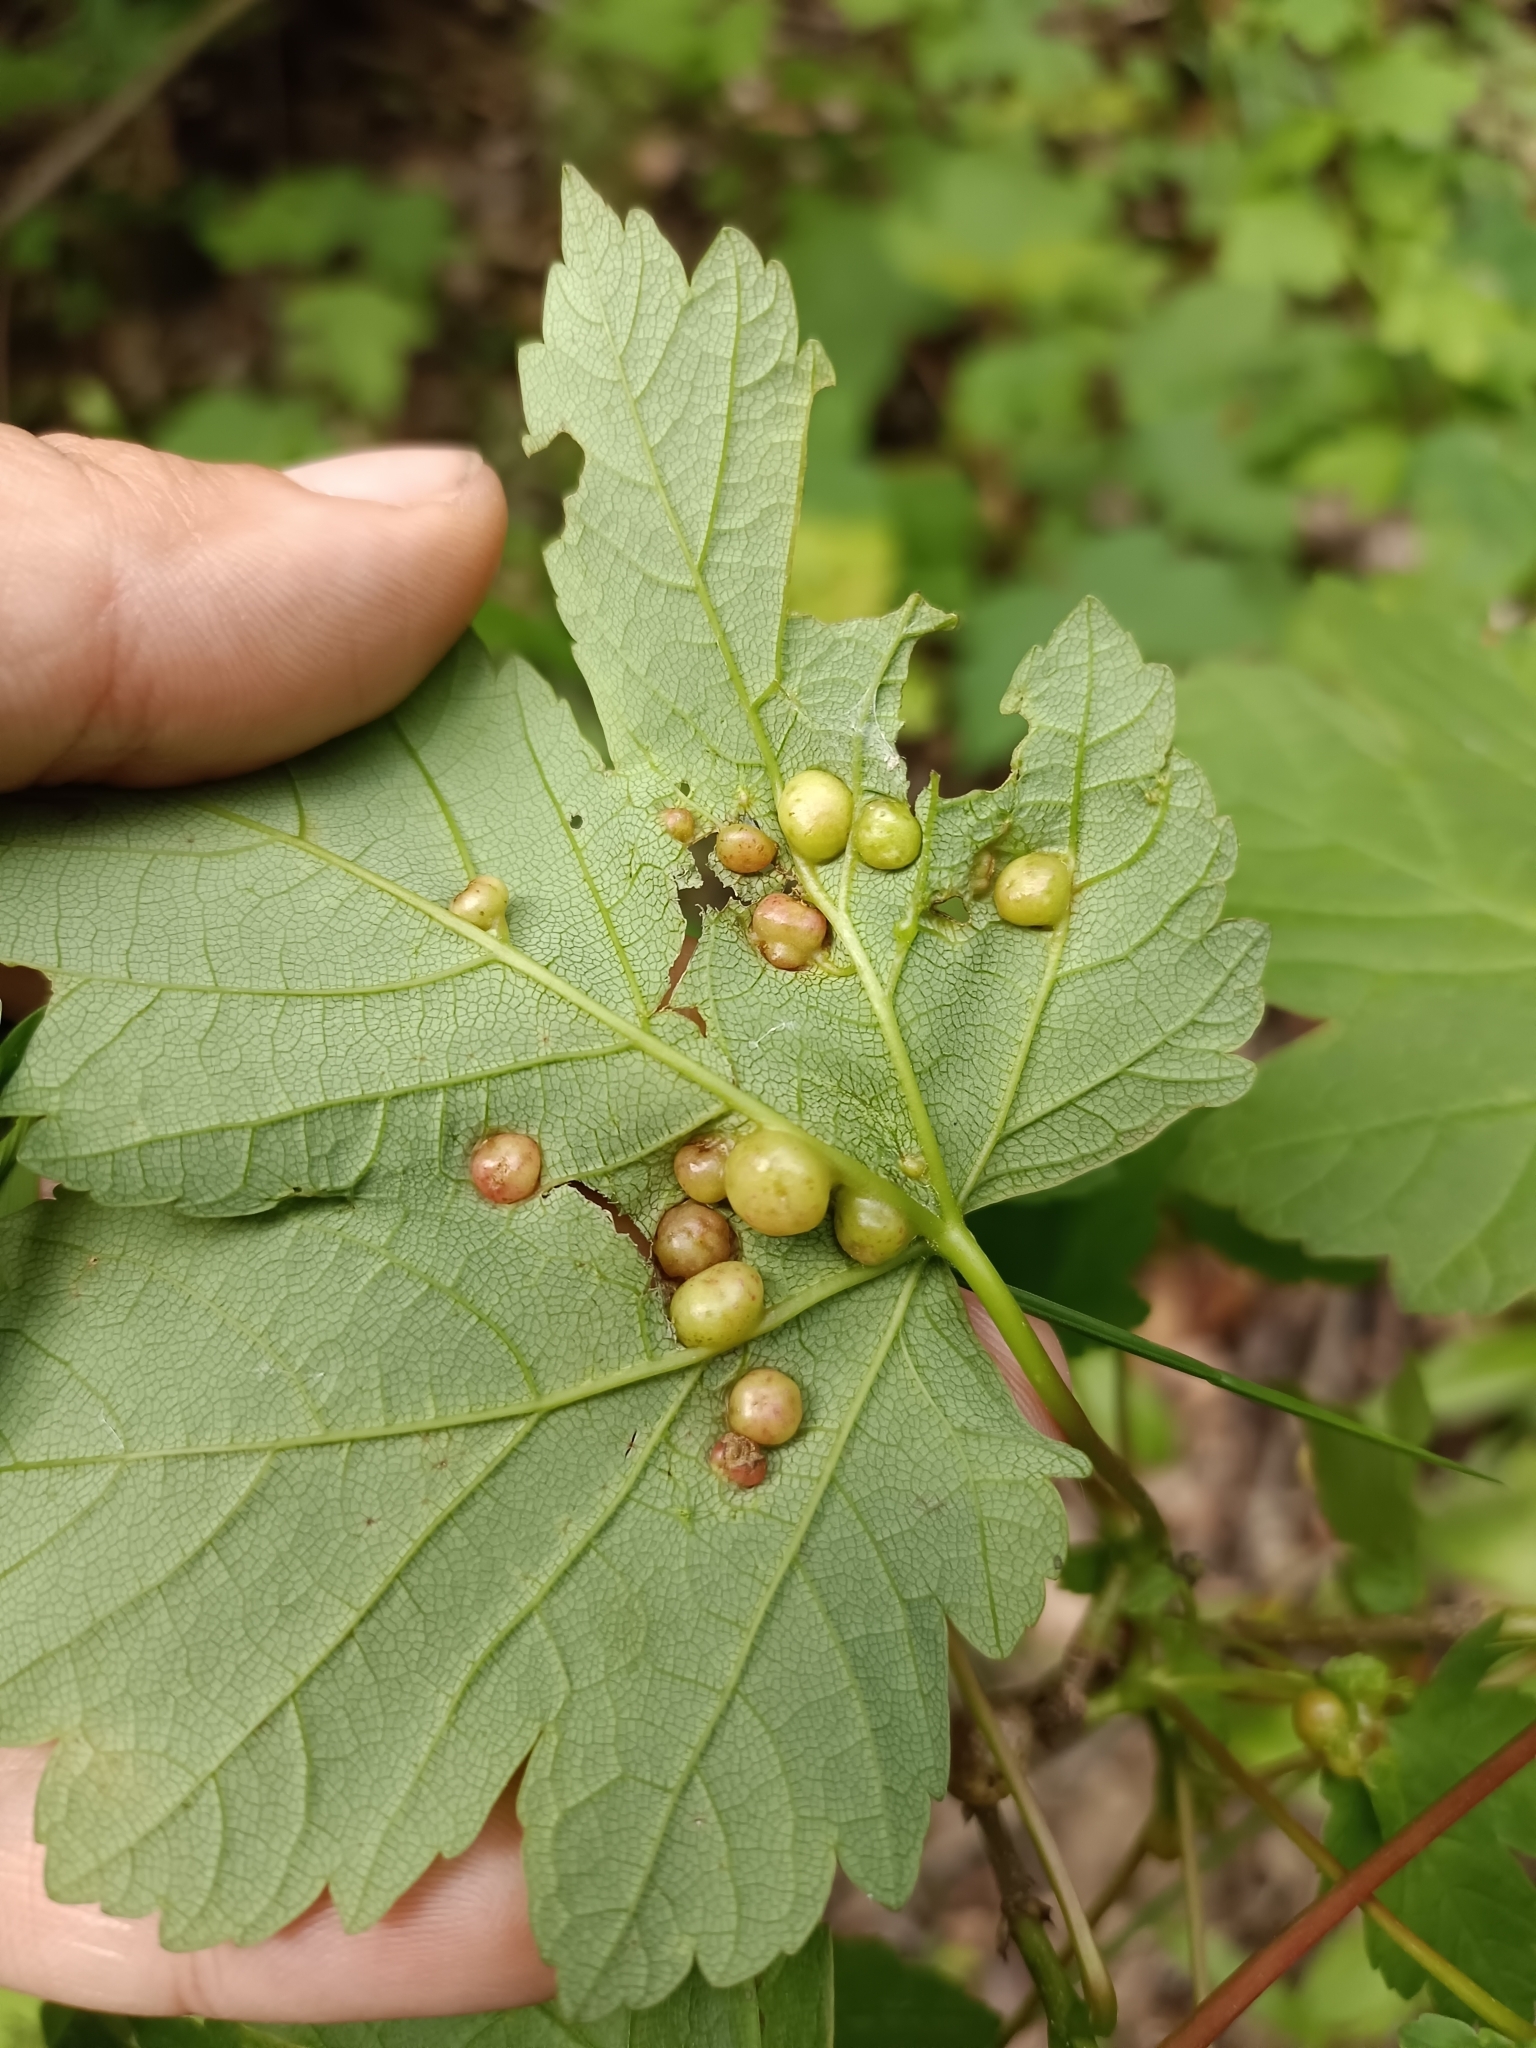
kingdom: Animalia
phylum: Arthropoda
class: Insecta
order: Hymenoptera
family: Cynipidae
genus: Pediaspis
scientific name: Pediaspis aceris
